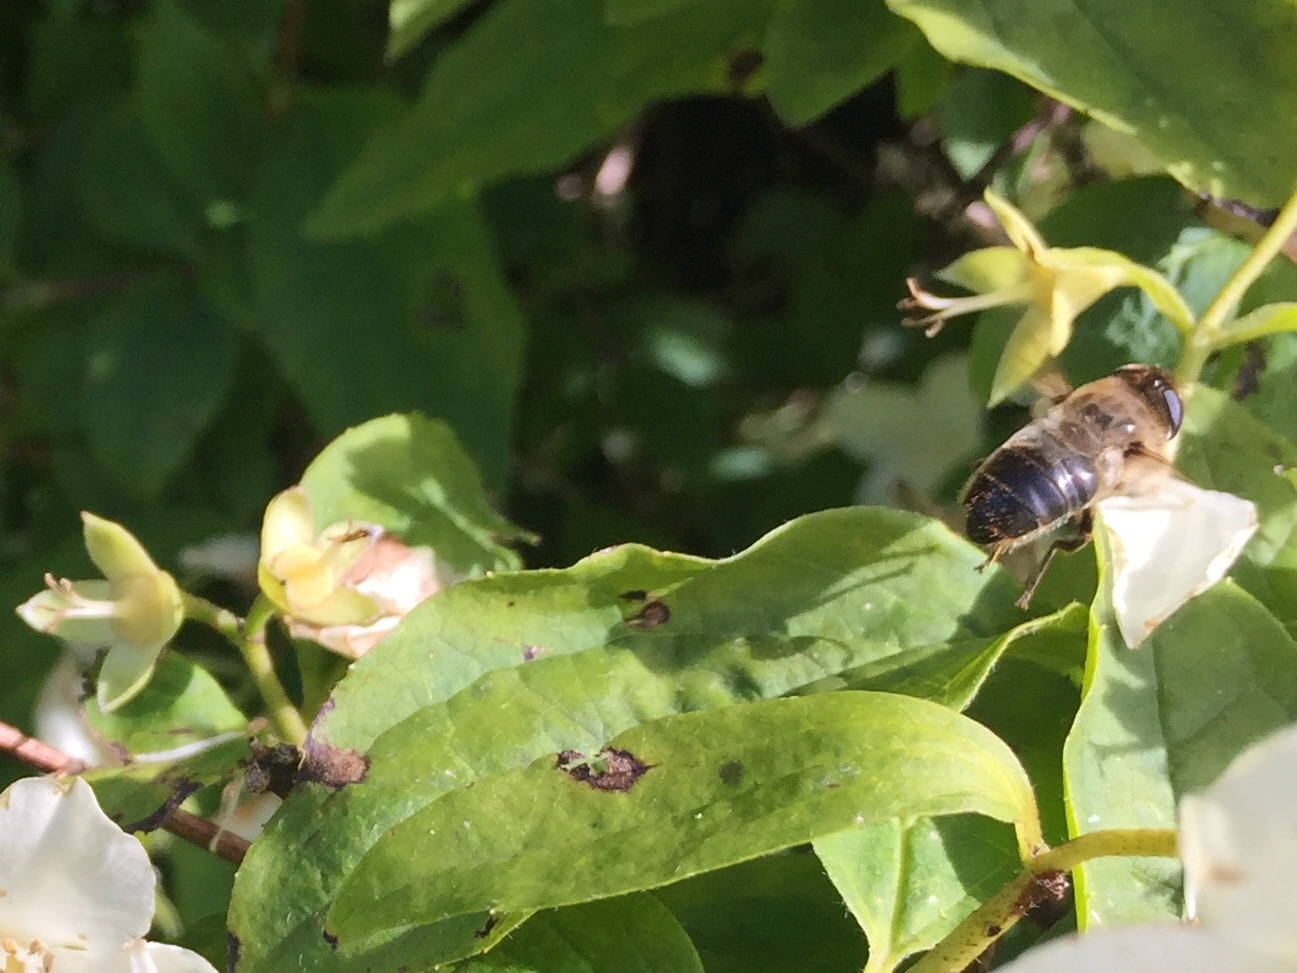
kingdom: Animalia
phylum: Arthropoda
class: Insecta
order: Diptera
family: Syrphidae
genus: Eristalis
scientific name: Eristalis tenax
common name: Drone fly
